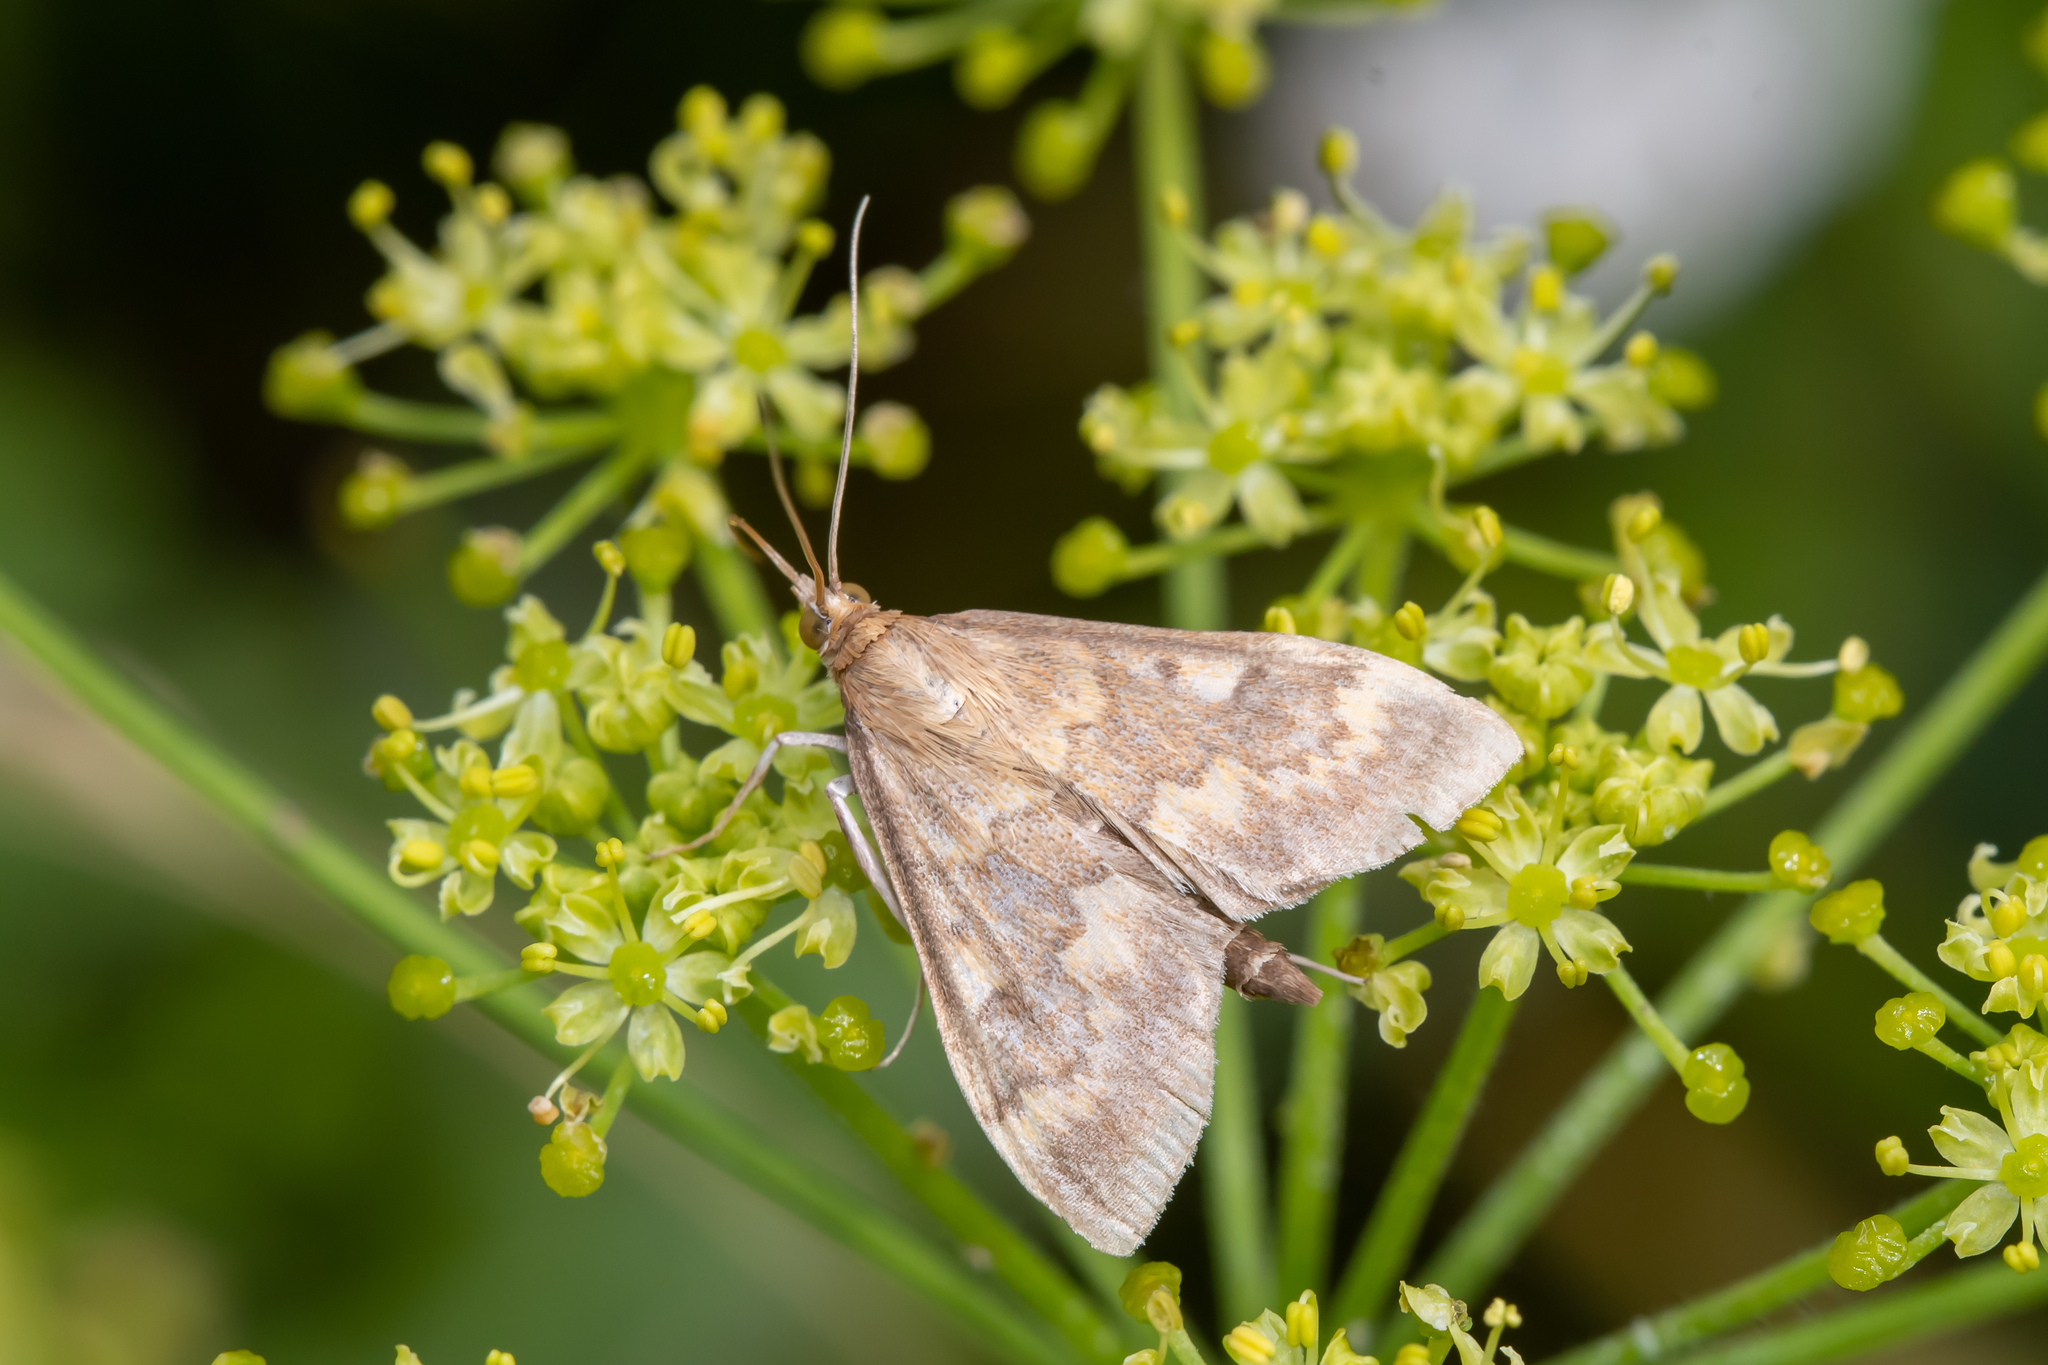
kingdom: Animalia
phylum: Arthropoda
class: Insecta
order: Lepidoptera
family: Crambidae
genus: Ostrinia
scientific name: Ostrinia nubilalis
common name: European corn borer
